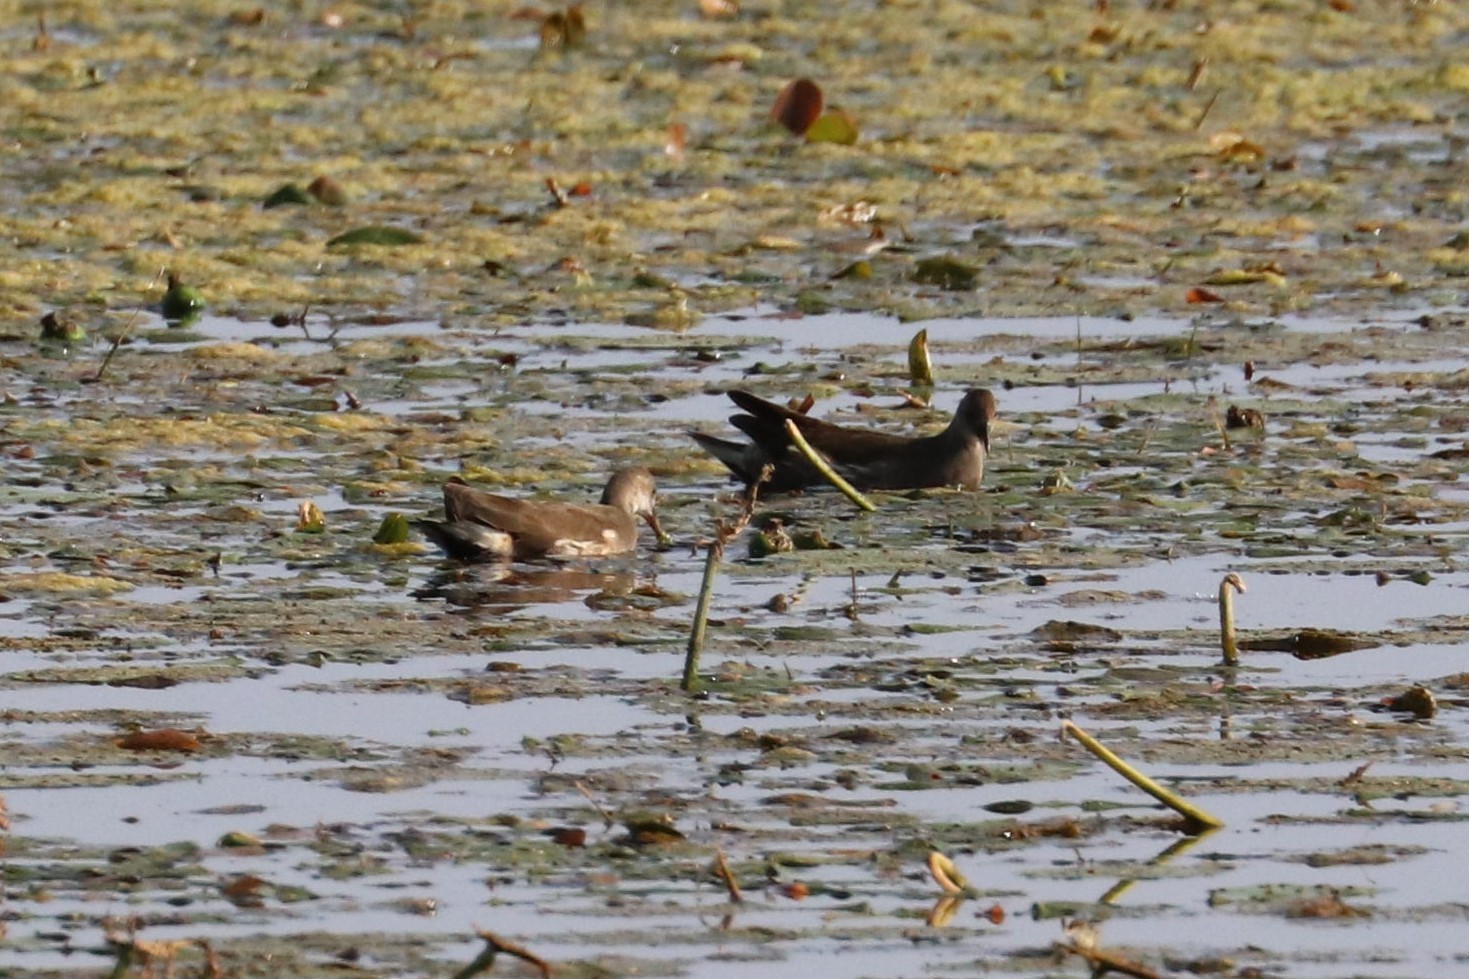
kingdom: Animalia
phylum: Chordata
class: Aves
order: Gruiformes
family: Rallidae
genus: Gallinula
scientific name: Gallinula chloropus
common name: Common moorhen
